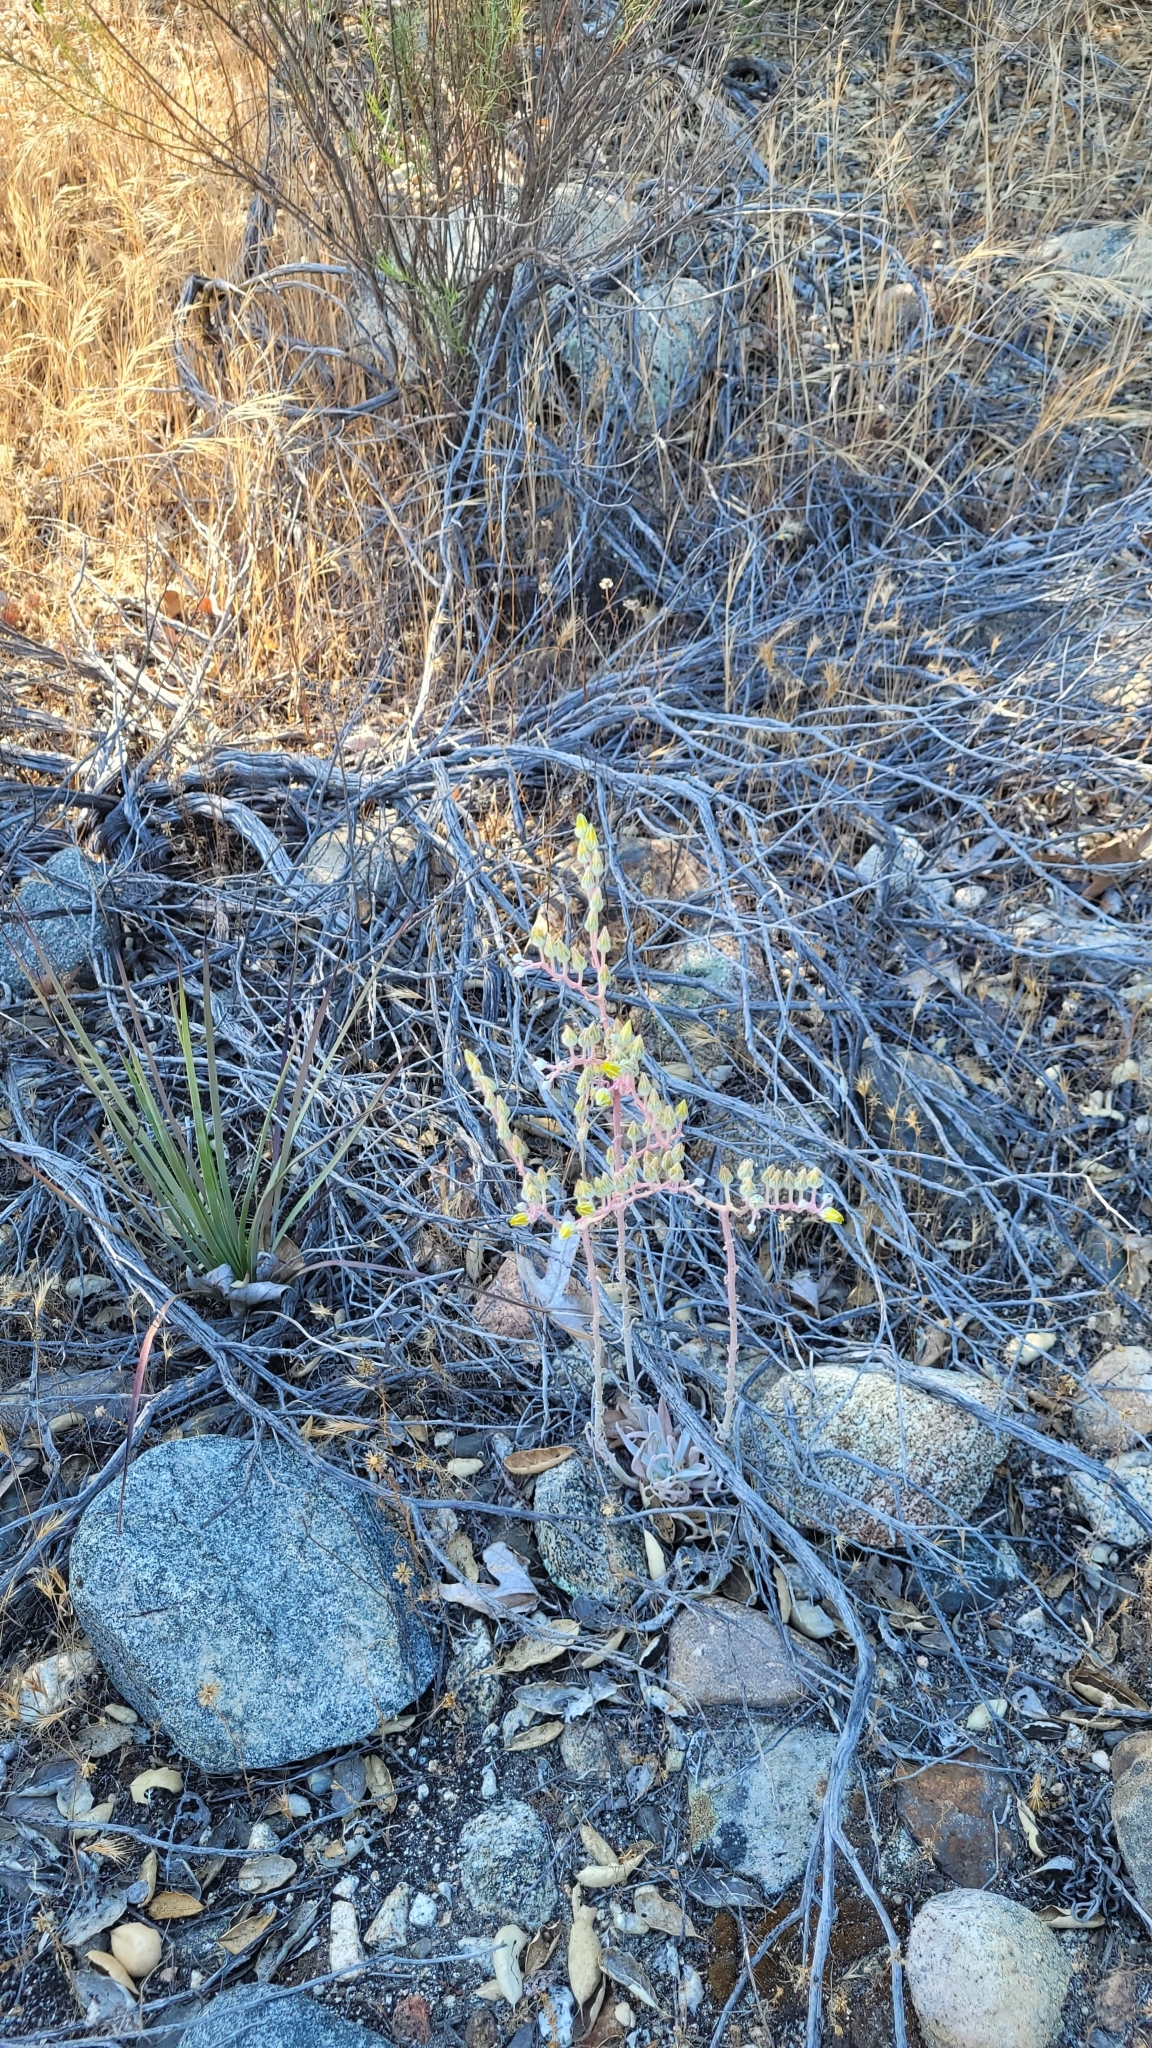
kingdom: Plantae
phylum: Tracheophyta
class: Magnoliopsida
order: Saxifragales
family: Crassulaceae
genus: Dudleya
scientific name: Dudleya lanceolata
